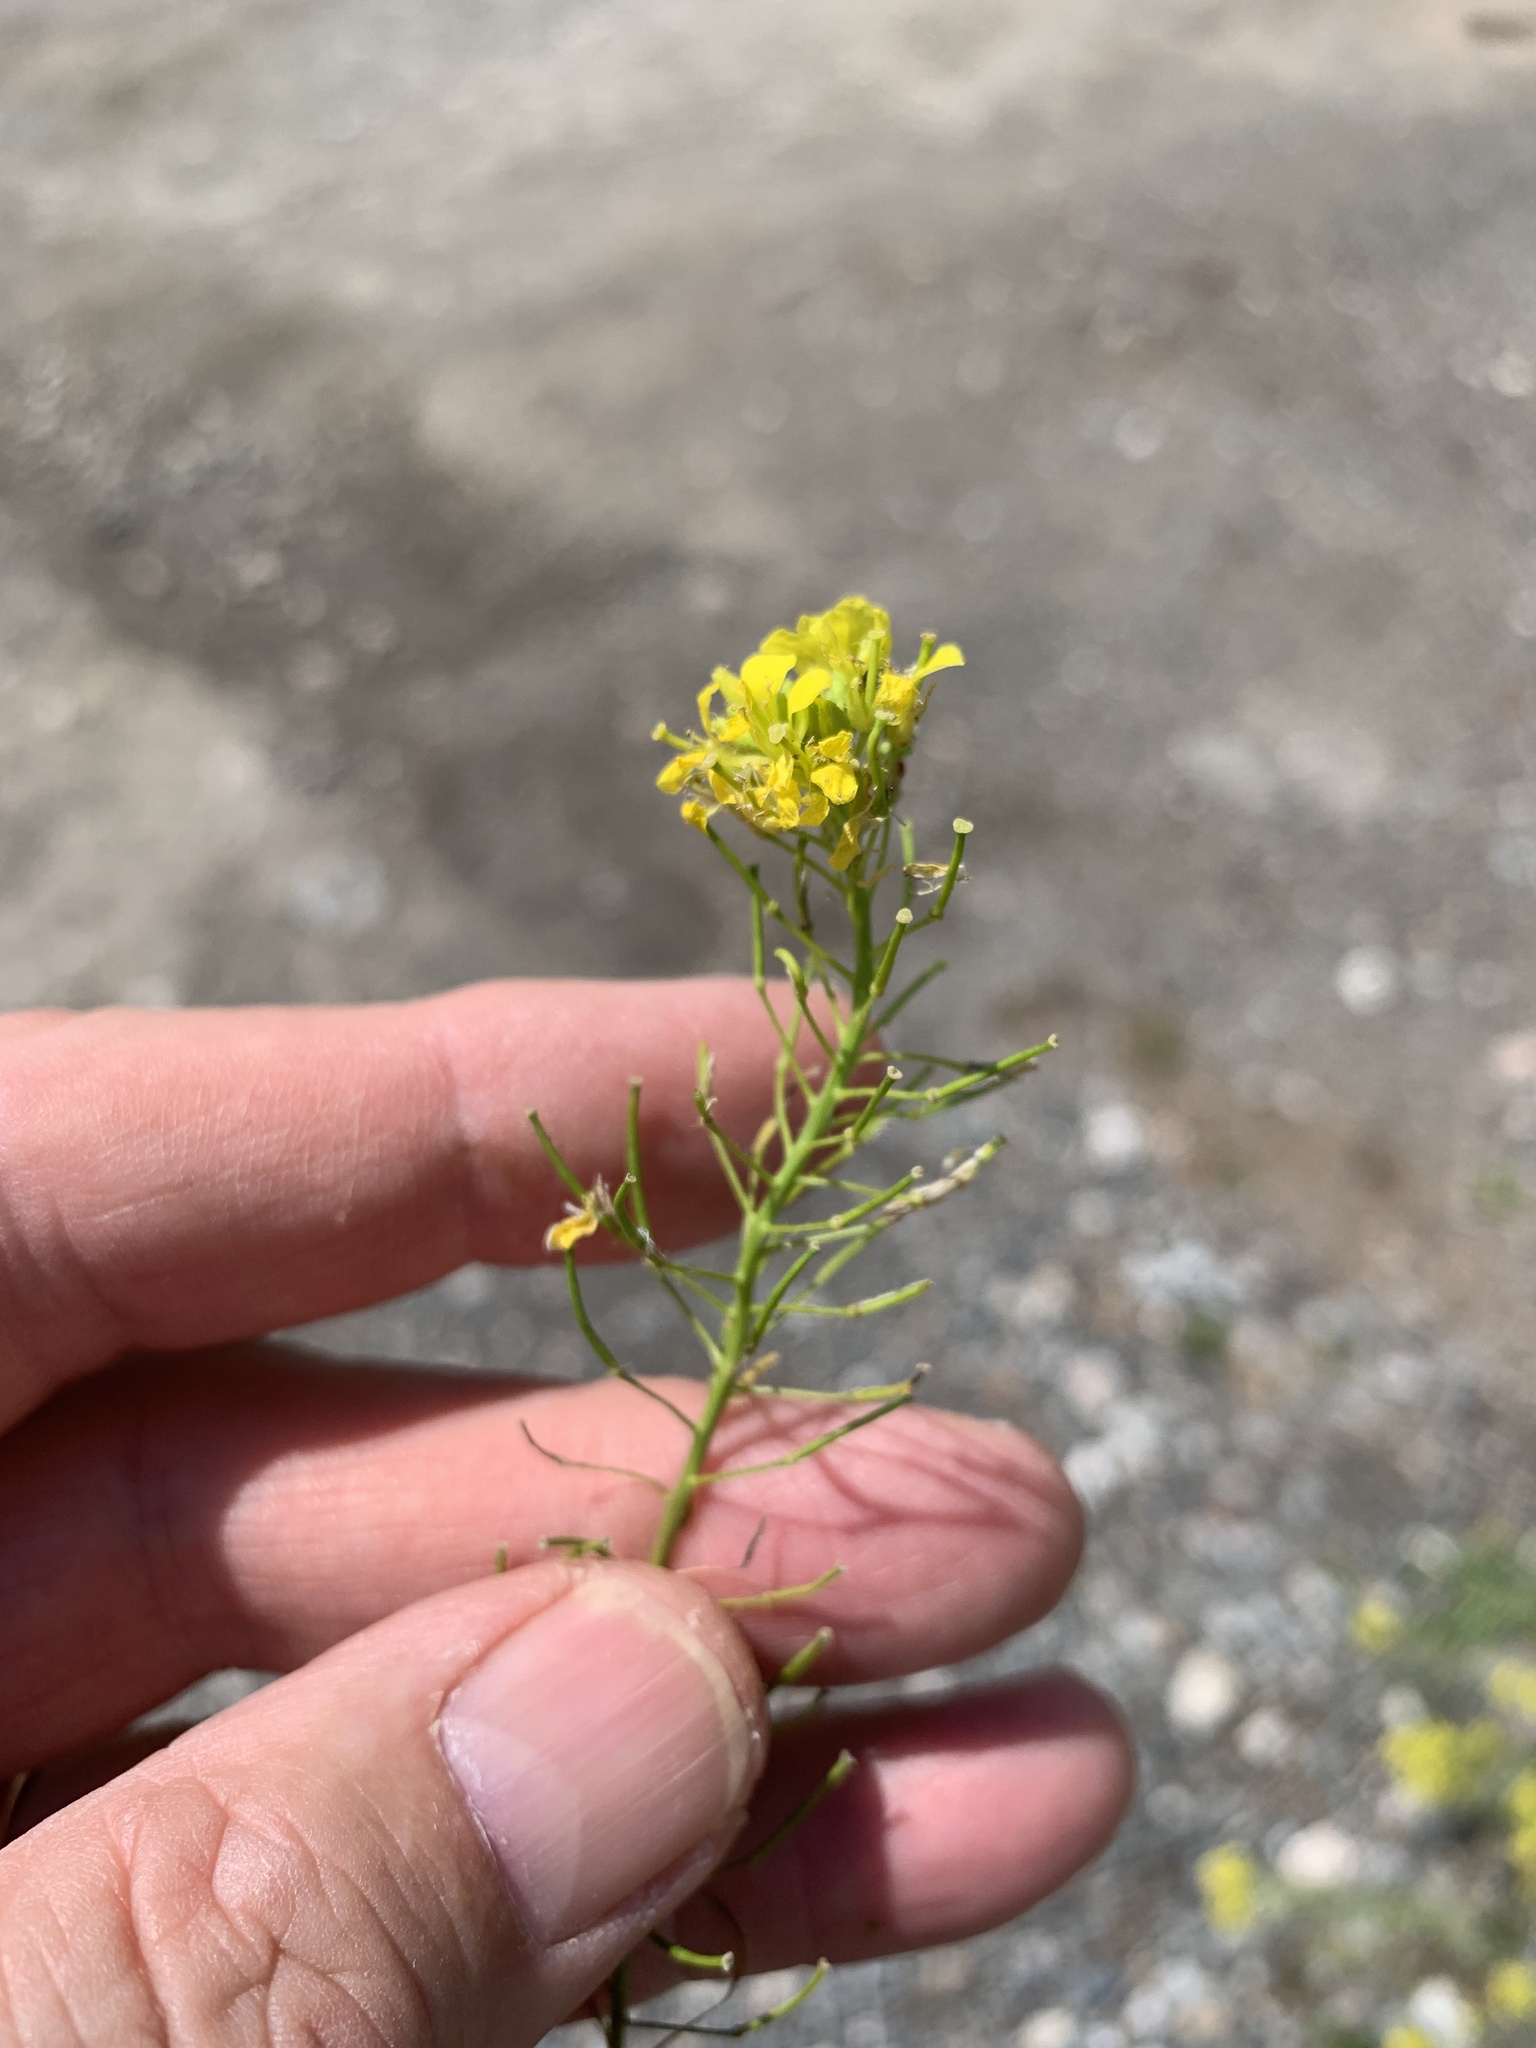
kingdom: Plantae
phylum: Tracheophyta
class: Magnoliopsida
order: Brassicales
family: Brassicaceae
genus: Sisymbrium
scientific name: Sisymbrium loeselii
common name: False london-rocket
